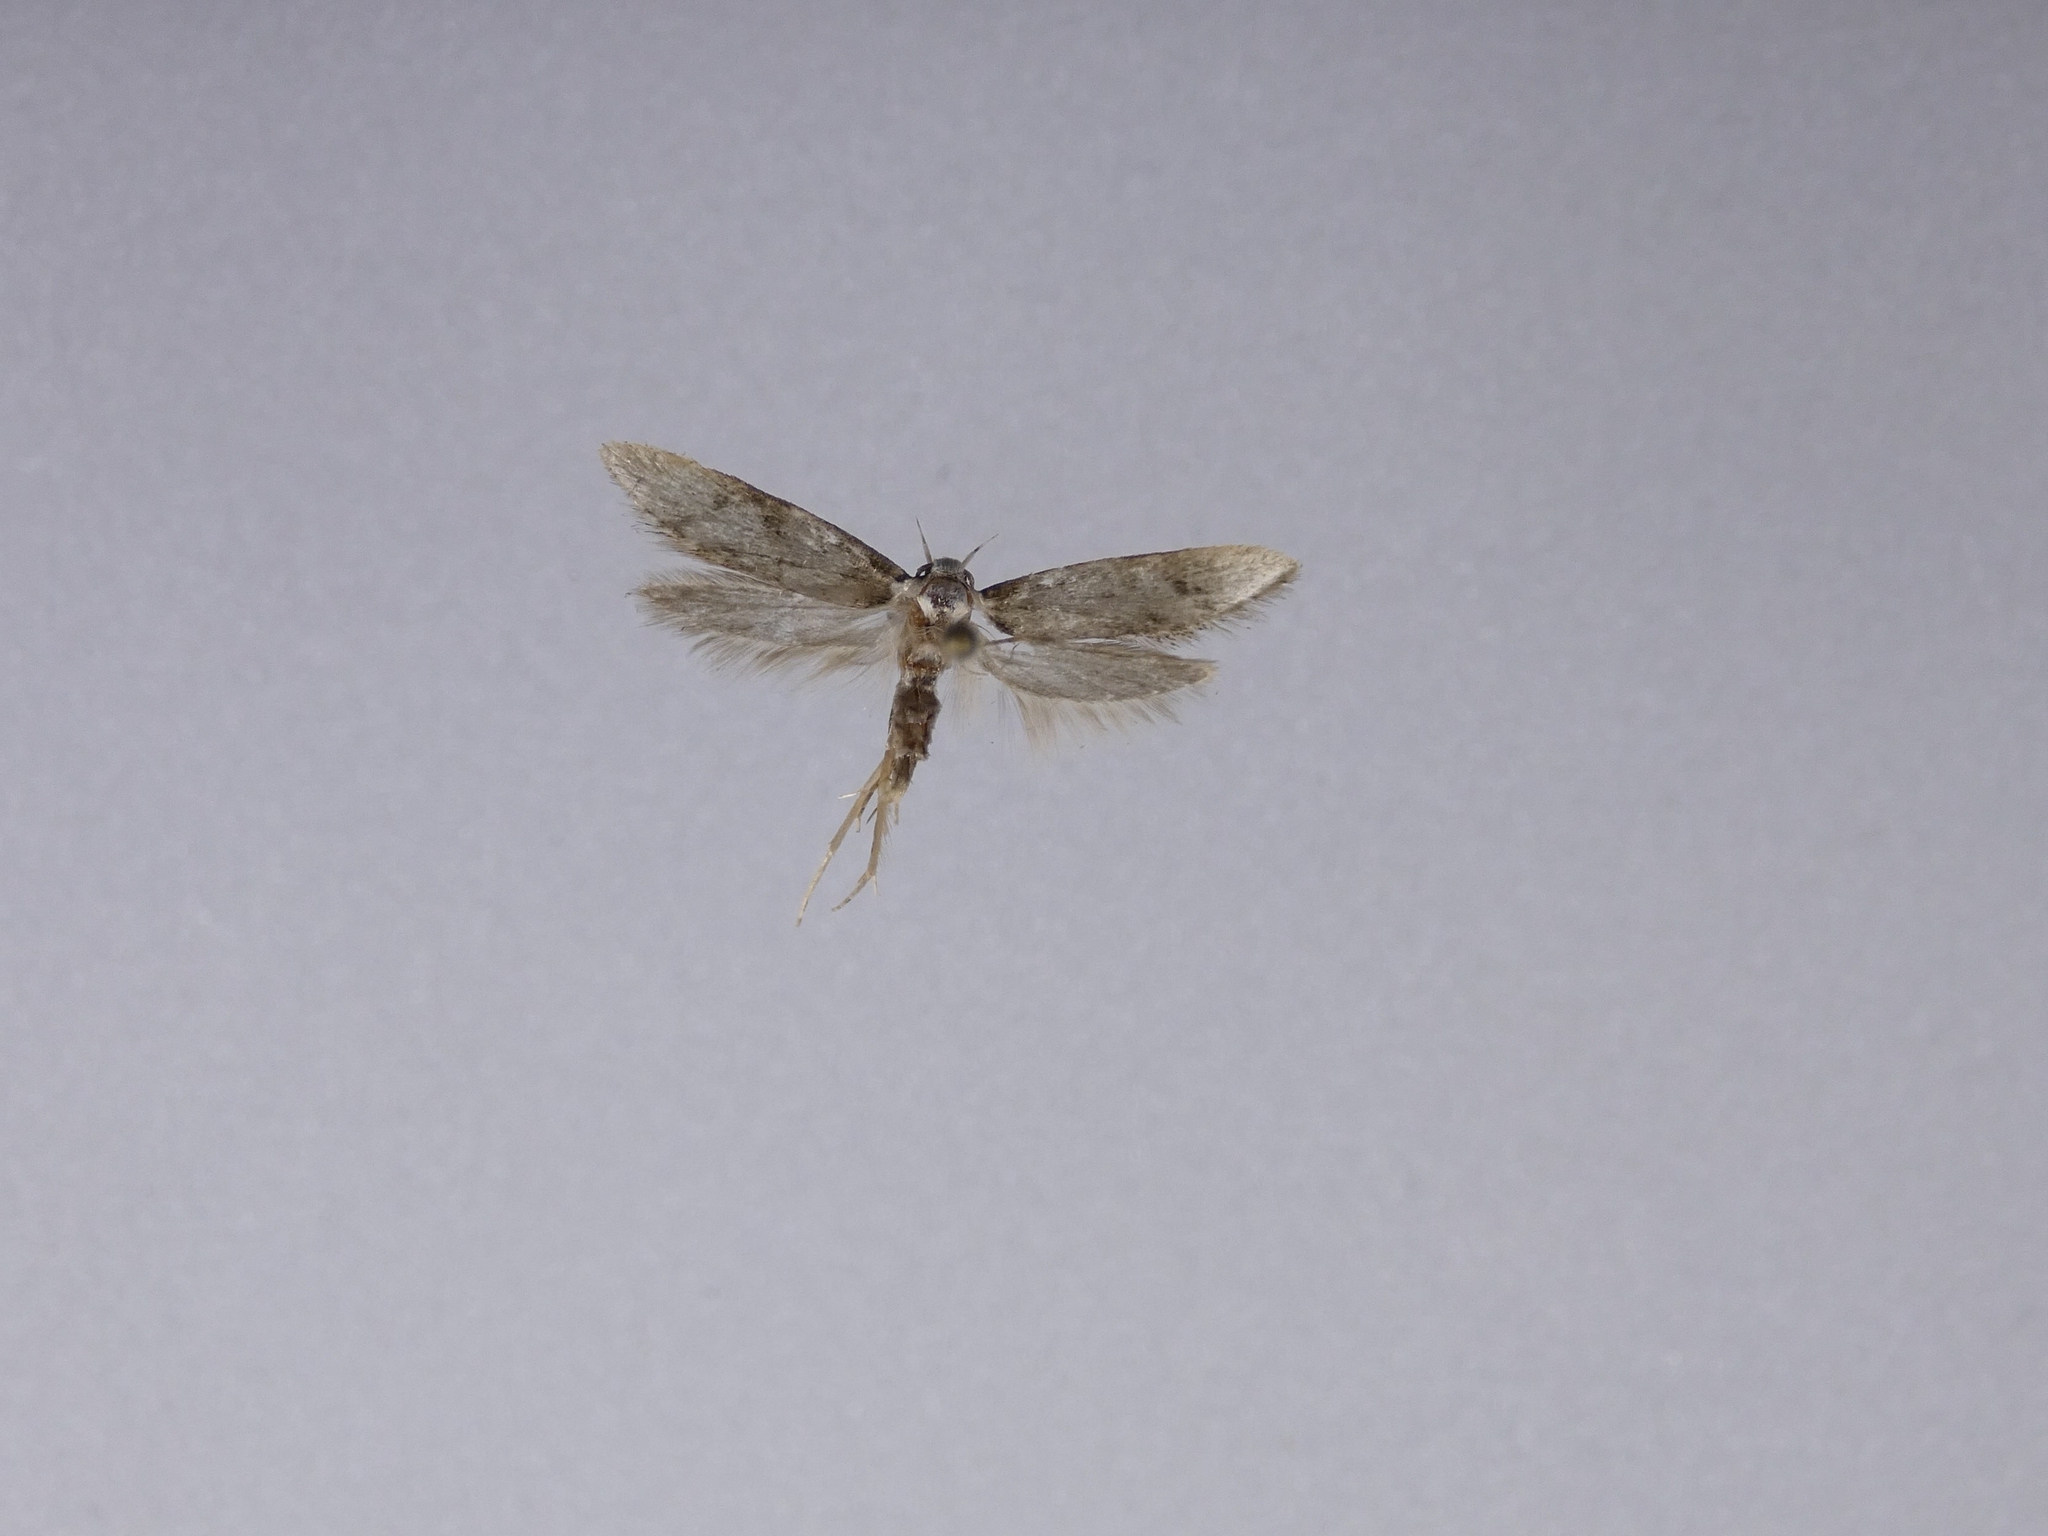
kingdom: Animalia
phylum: Arthropoda
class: Insecta
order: Lepidoptera
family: Oecophoridae
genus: Endrosis
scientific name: Endrosis sarcitrella
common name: White-shouldered house moth
